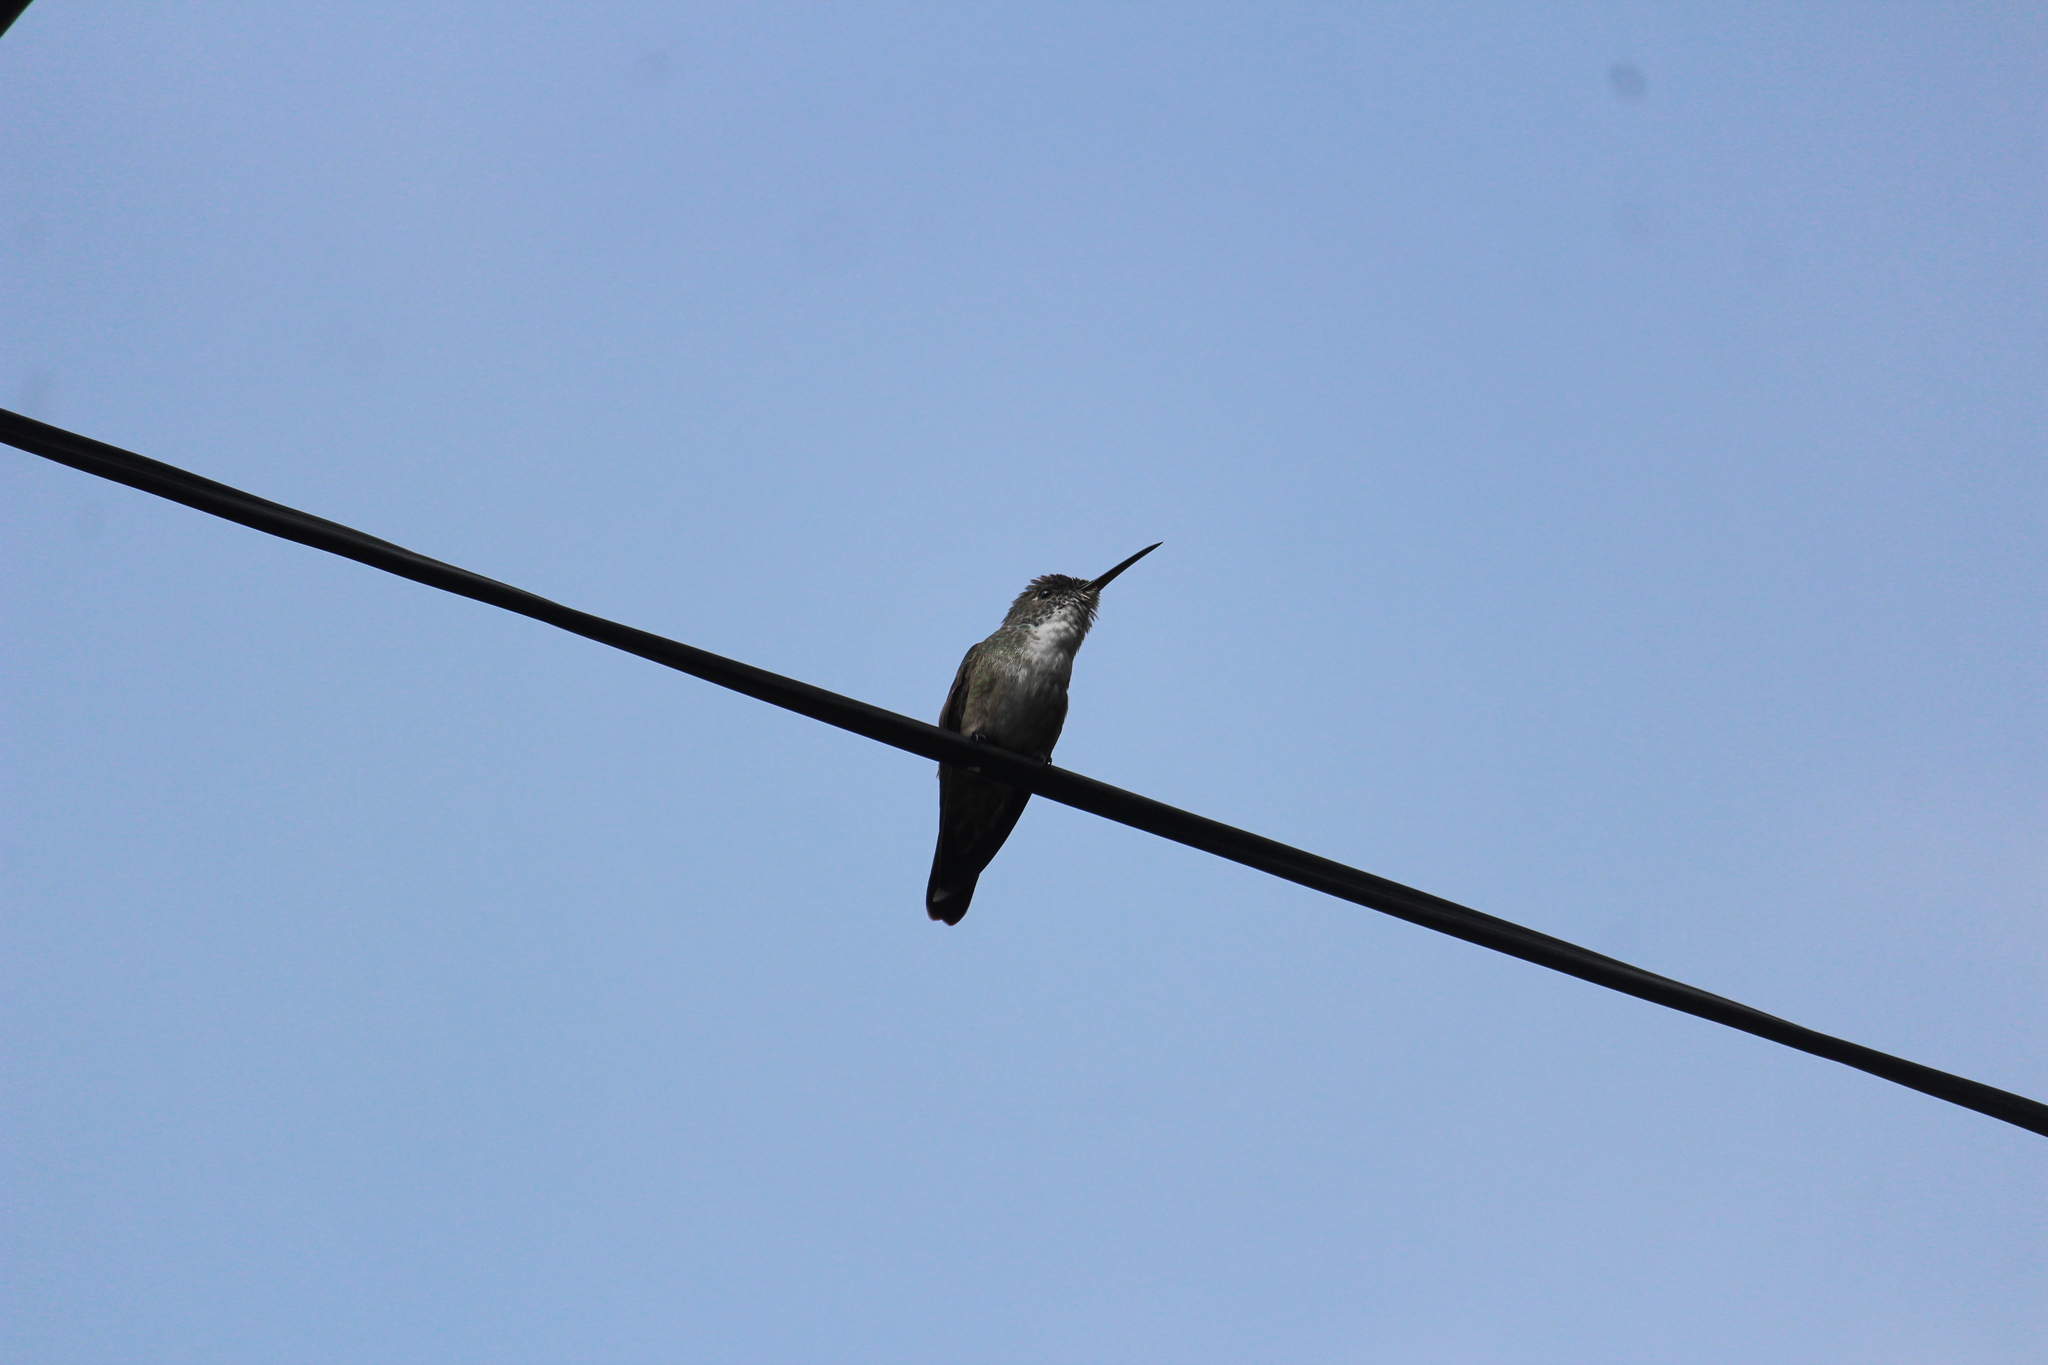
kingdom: Animalia
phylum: Chordata
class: Aves
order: Apodiformes
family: Trochilidae
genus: Saucerottia
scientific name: Saucerottia cyanocephala
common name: Azure-crowned hummingbird
